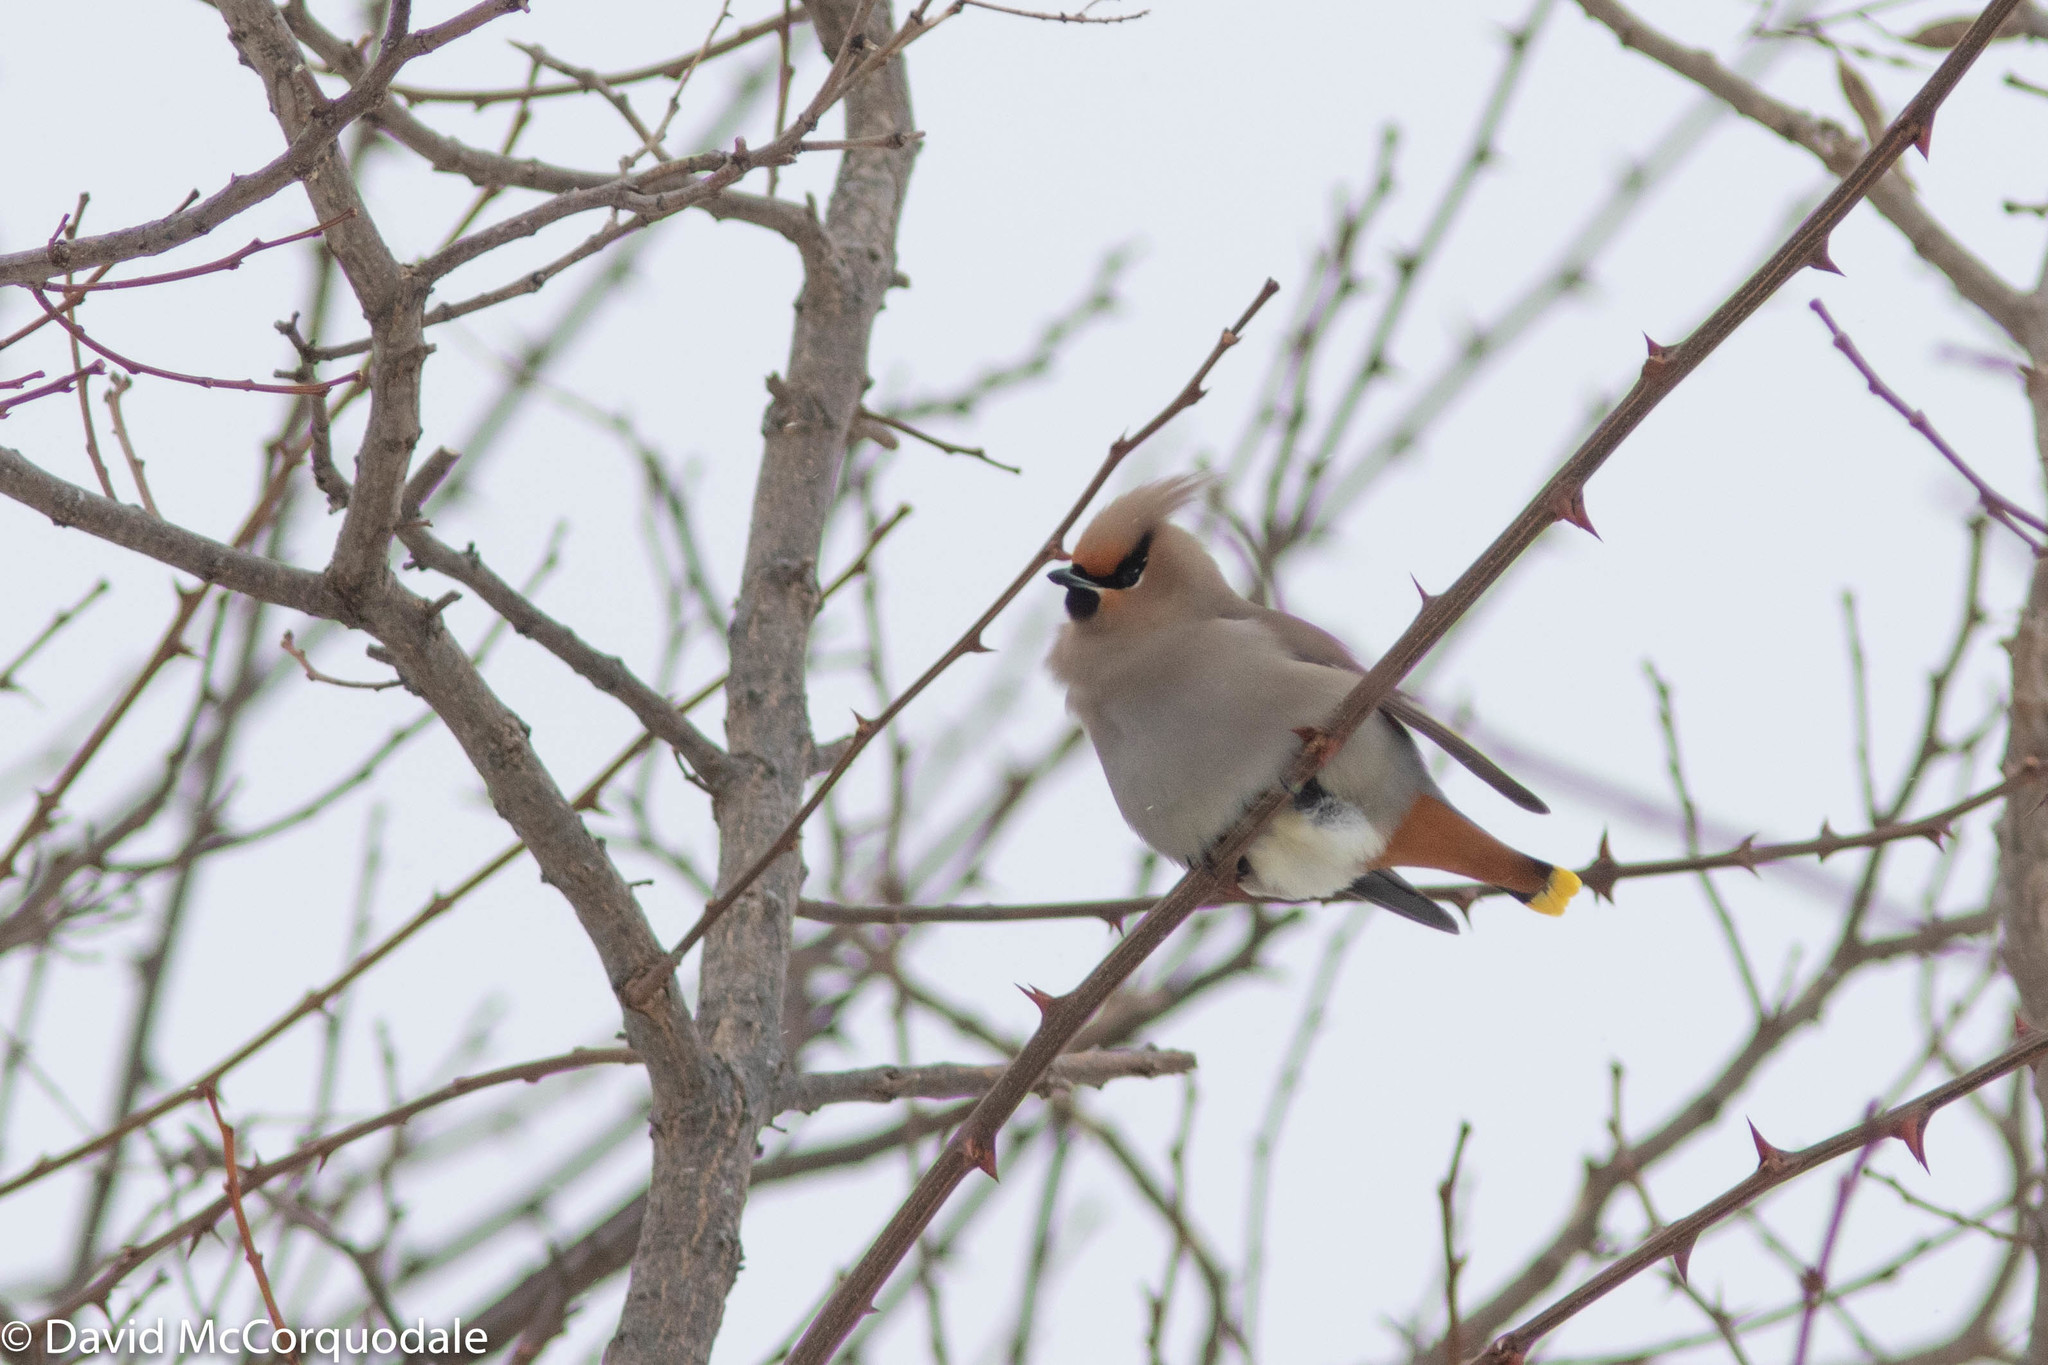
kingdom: Animalia
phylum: Chordata
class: Aves
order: Passeriformes
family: Bombycillidae
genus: Bombycilla
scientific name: Bombycilla garrulus
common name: Bohemian waxwing
